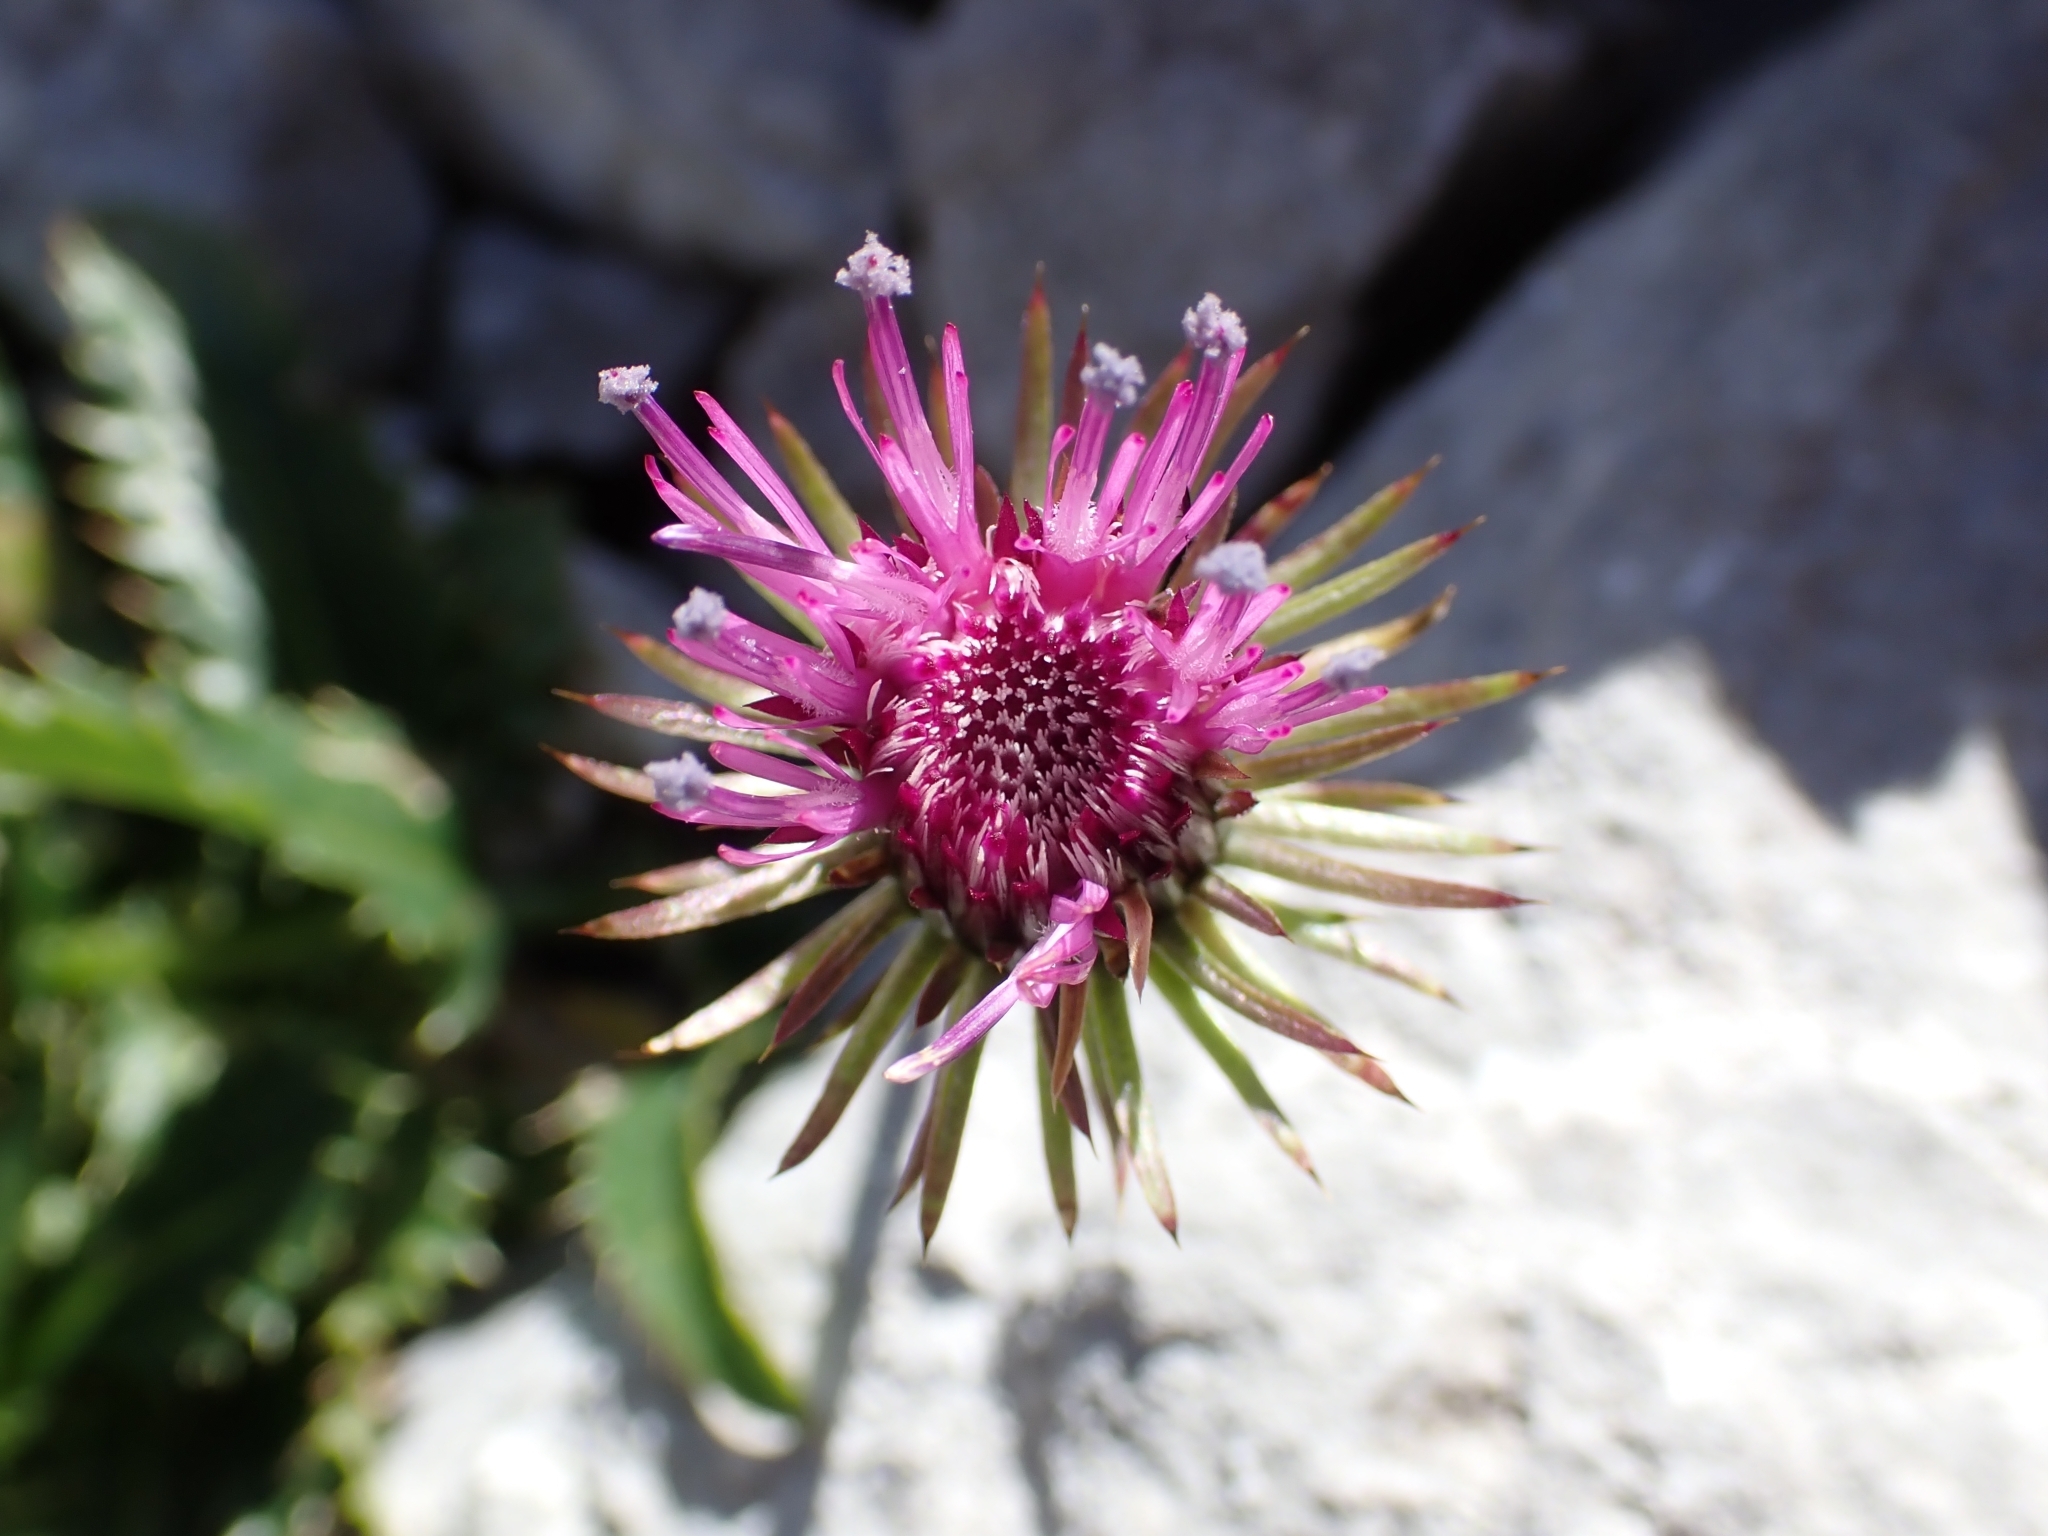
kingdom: Plantae
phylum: Tracheophyta
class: Magnoliopsida
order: Asterales
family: Asteraceae
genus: Carduus
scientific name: Carduus defloratus
